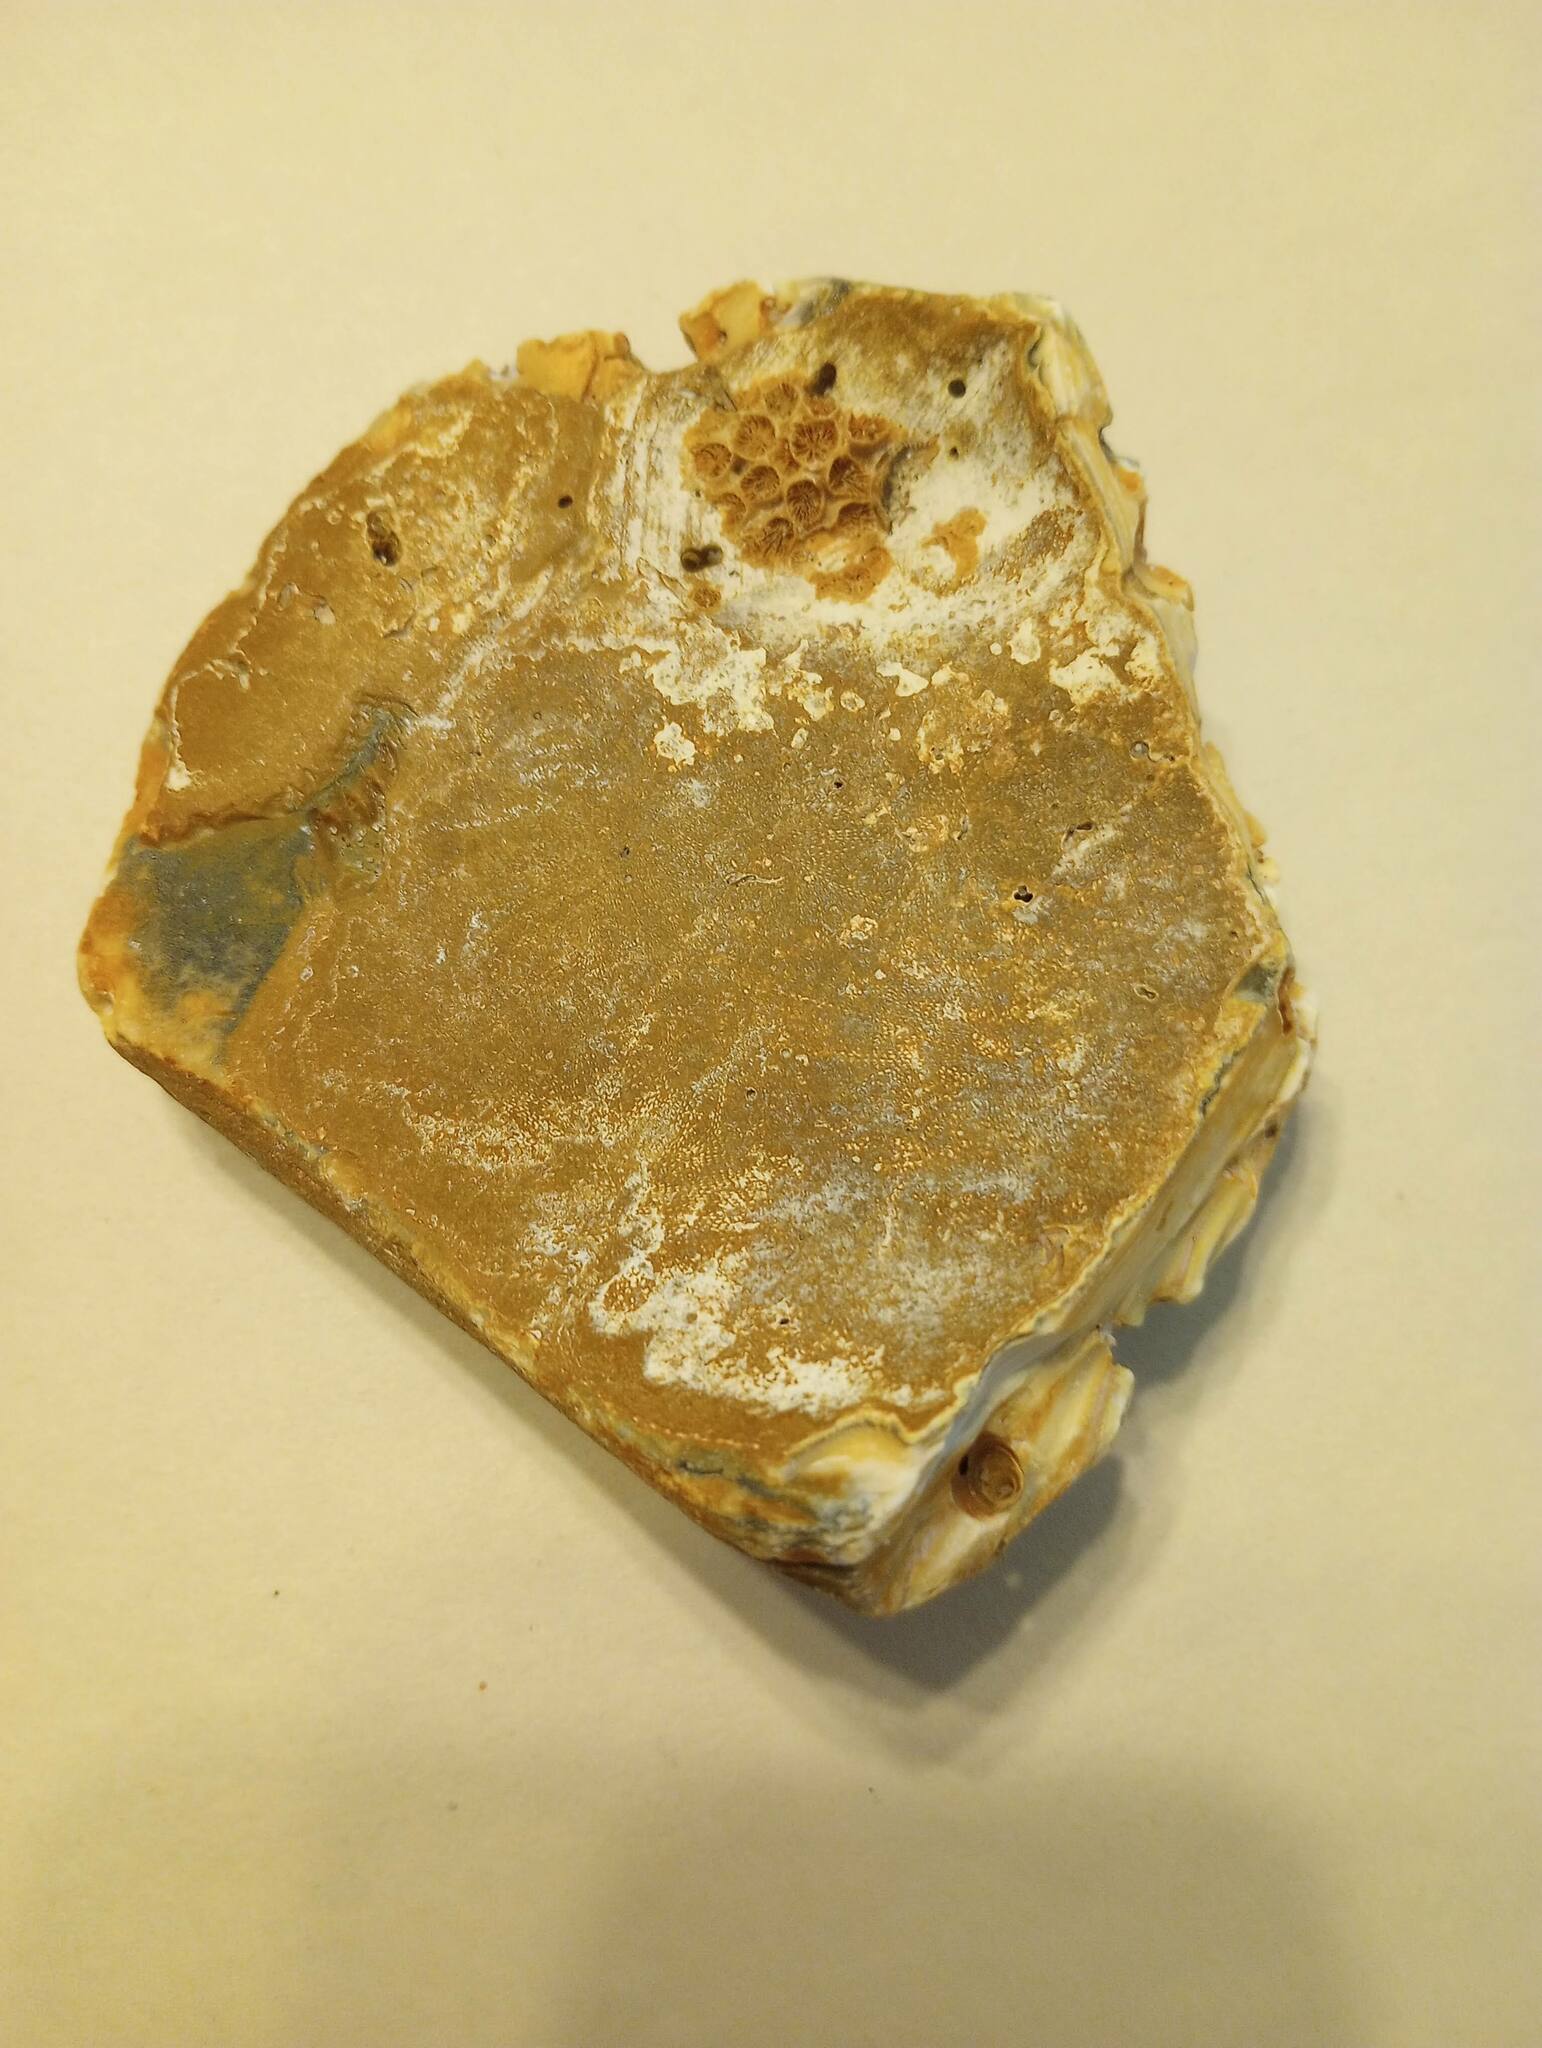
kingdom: Animalia
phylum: Cnidaria
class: Anthozoa
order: Scleractinia
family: Astrangiidae
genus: Astrangia
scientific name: Astrangia poculata
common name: Northern star coral
